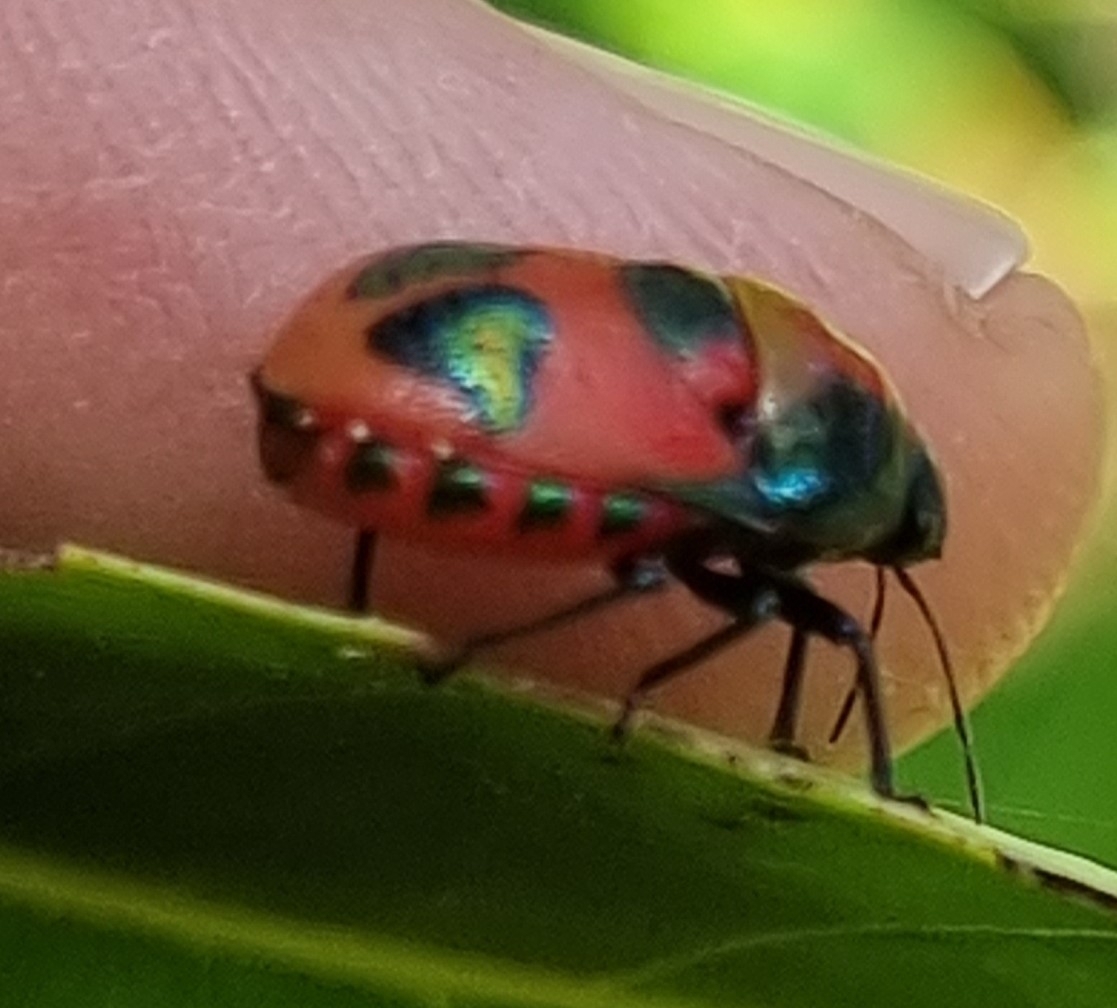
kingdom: Animalia
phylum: Arthropoda
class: Insecta
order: Hemiptera
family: Scutelleridae
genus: Choerocoris
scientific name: Choerocoris paganus
